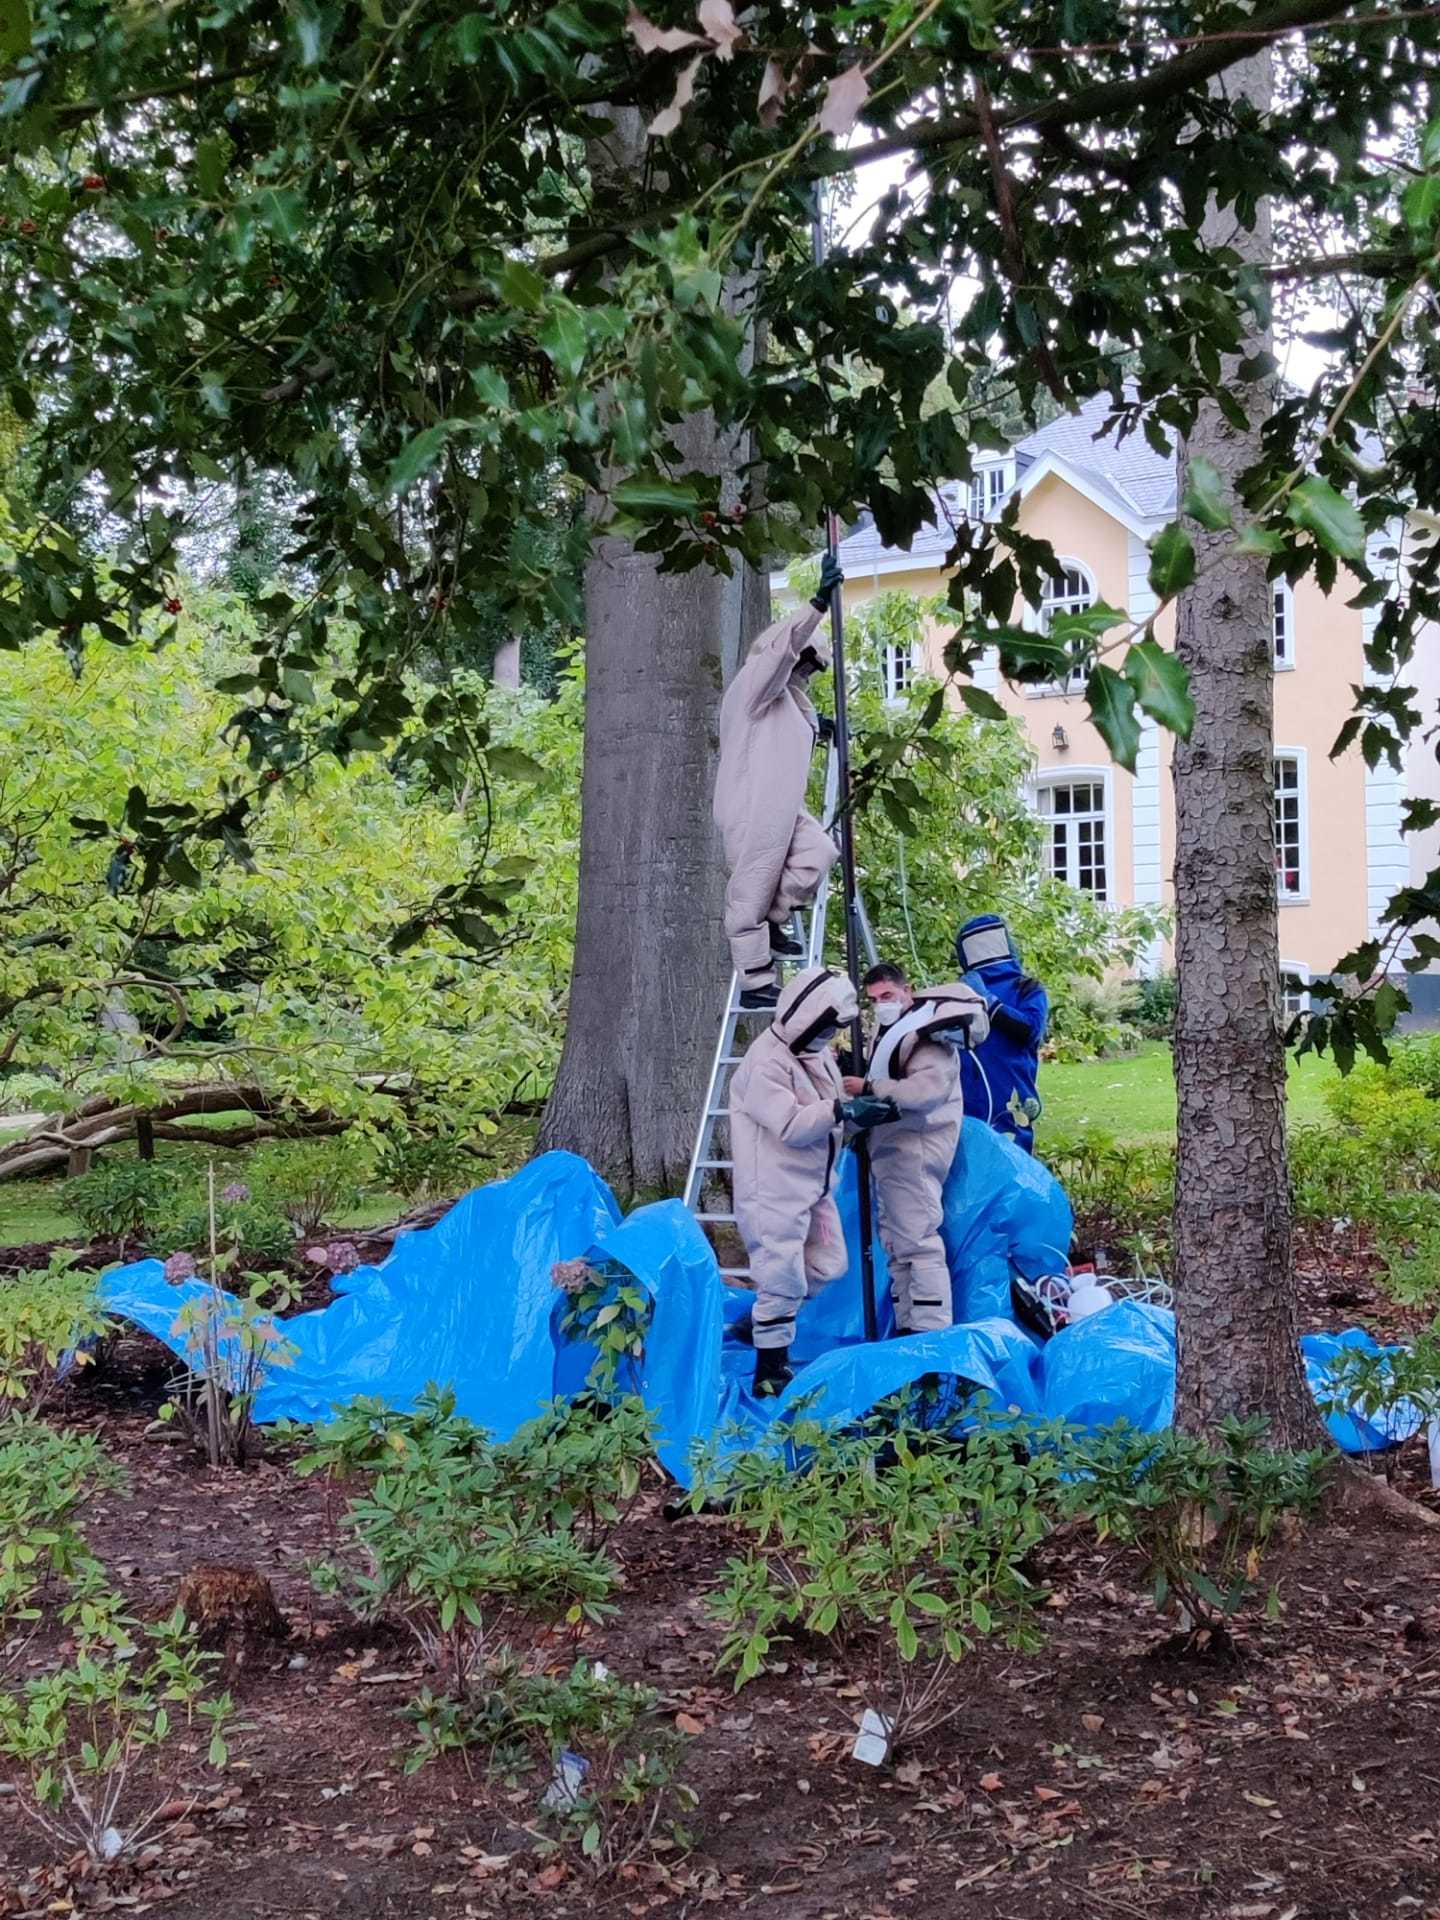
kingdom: Animalia
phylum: Arthropoda
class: Insecta
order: Hymenoptera
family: Vespidae
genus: Vespa
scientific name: Vespa velutina
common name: Asian hornet
